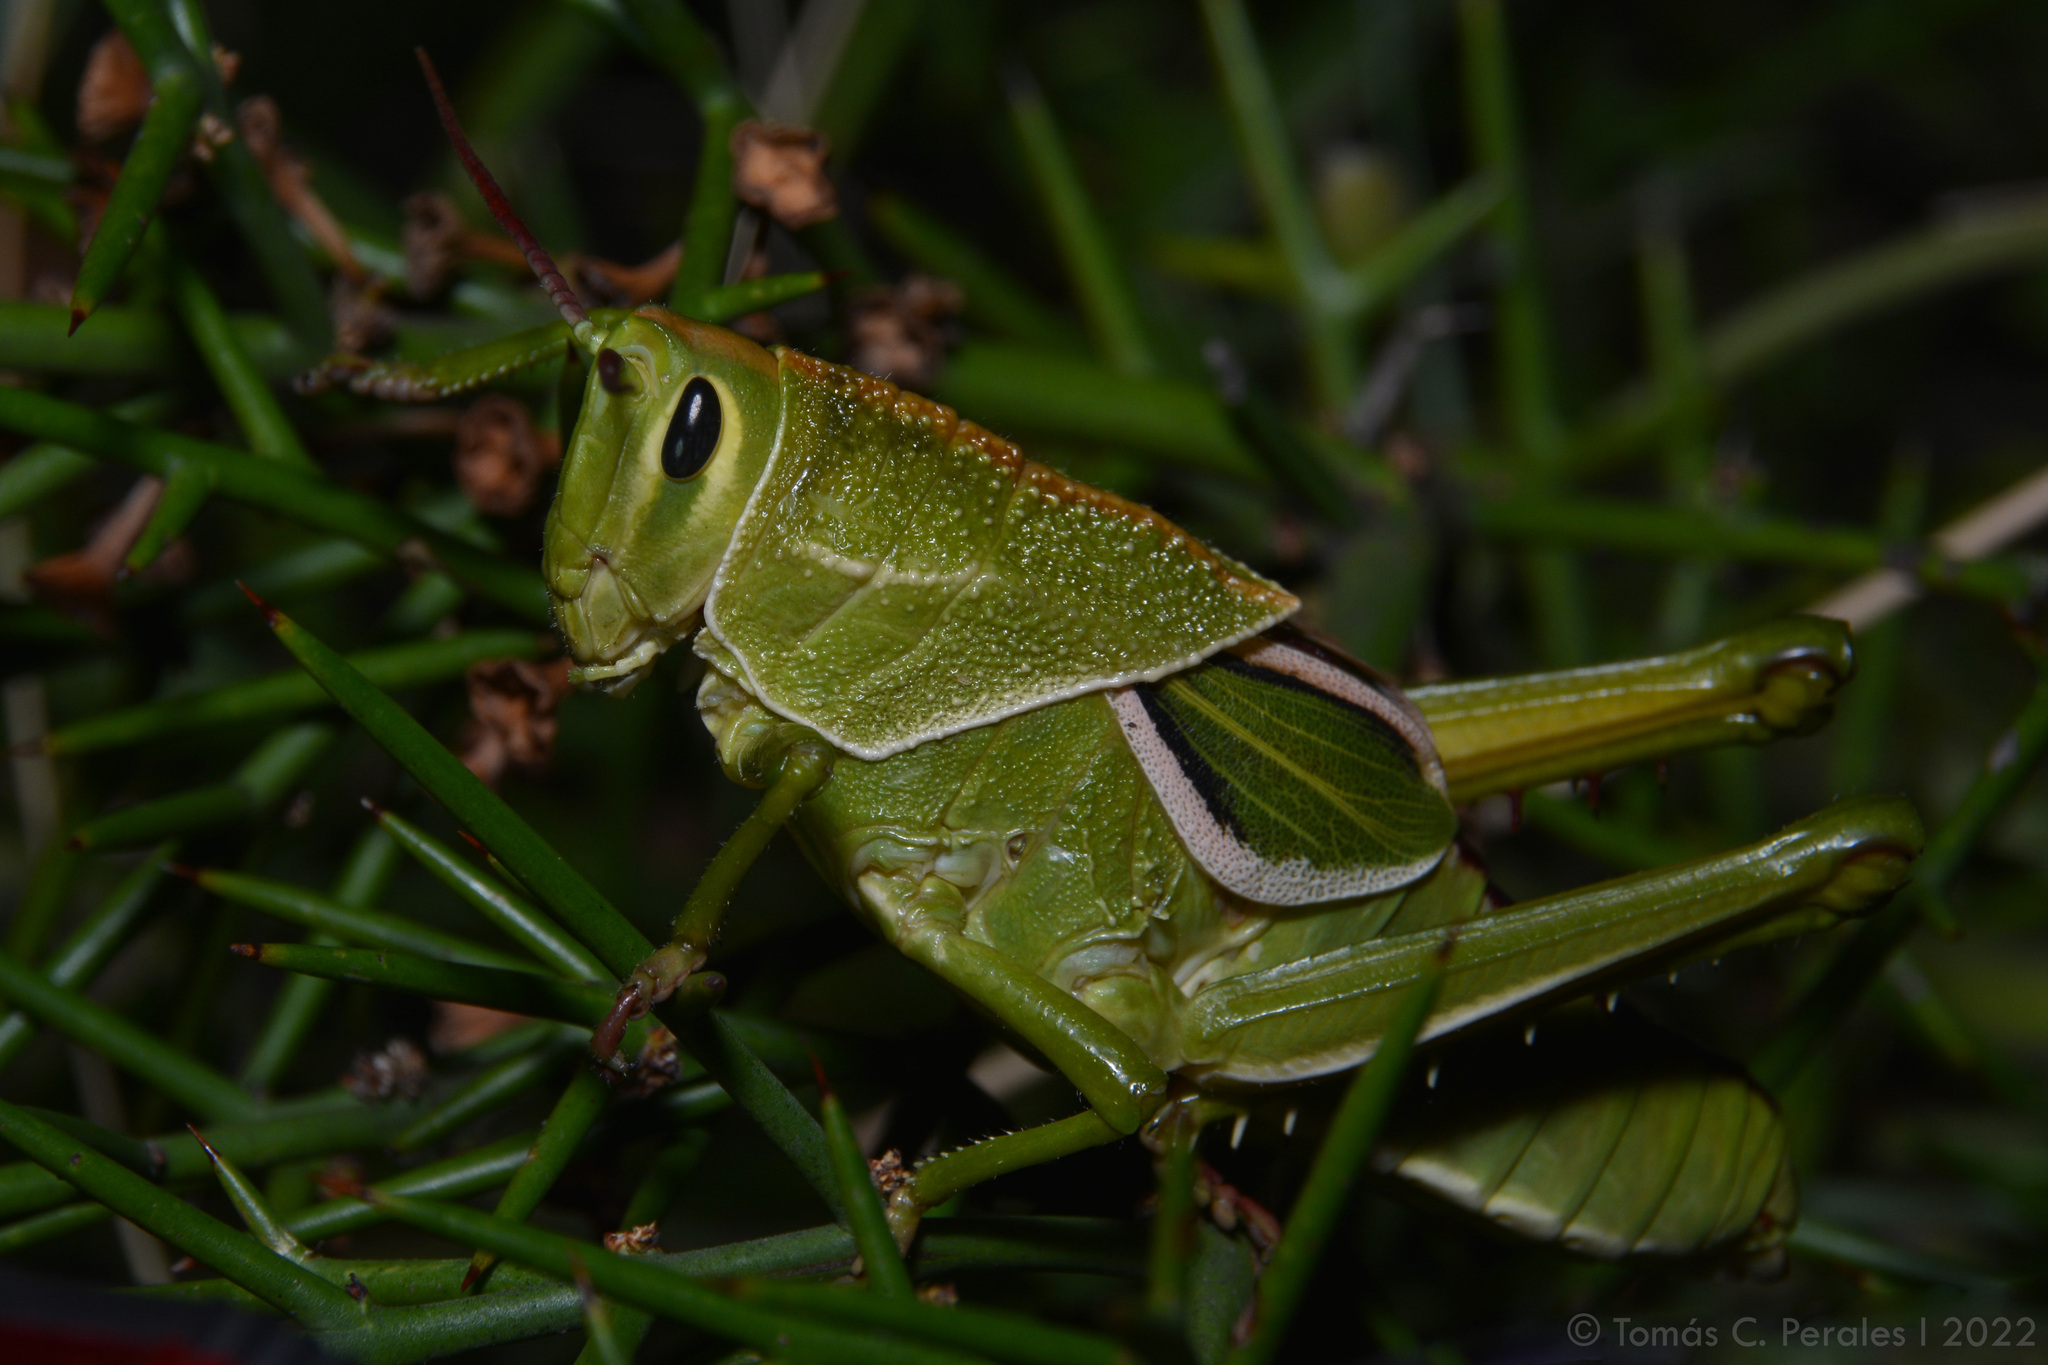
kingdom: Animalia
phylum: Arthropoda
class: Insecta
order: Orthoptera
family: Romaleidae
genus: Staleochlora
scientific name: Staleochlora viridicata
